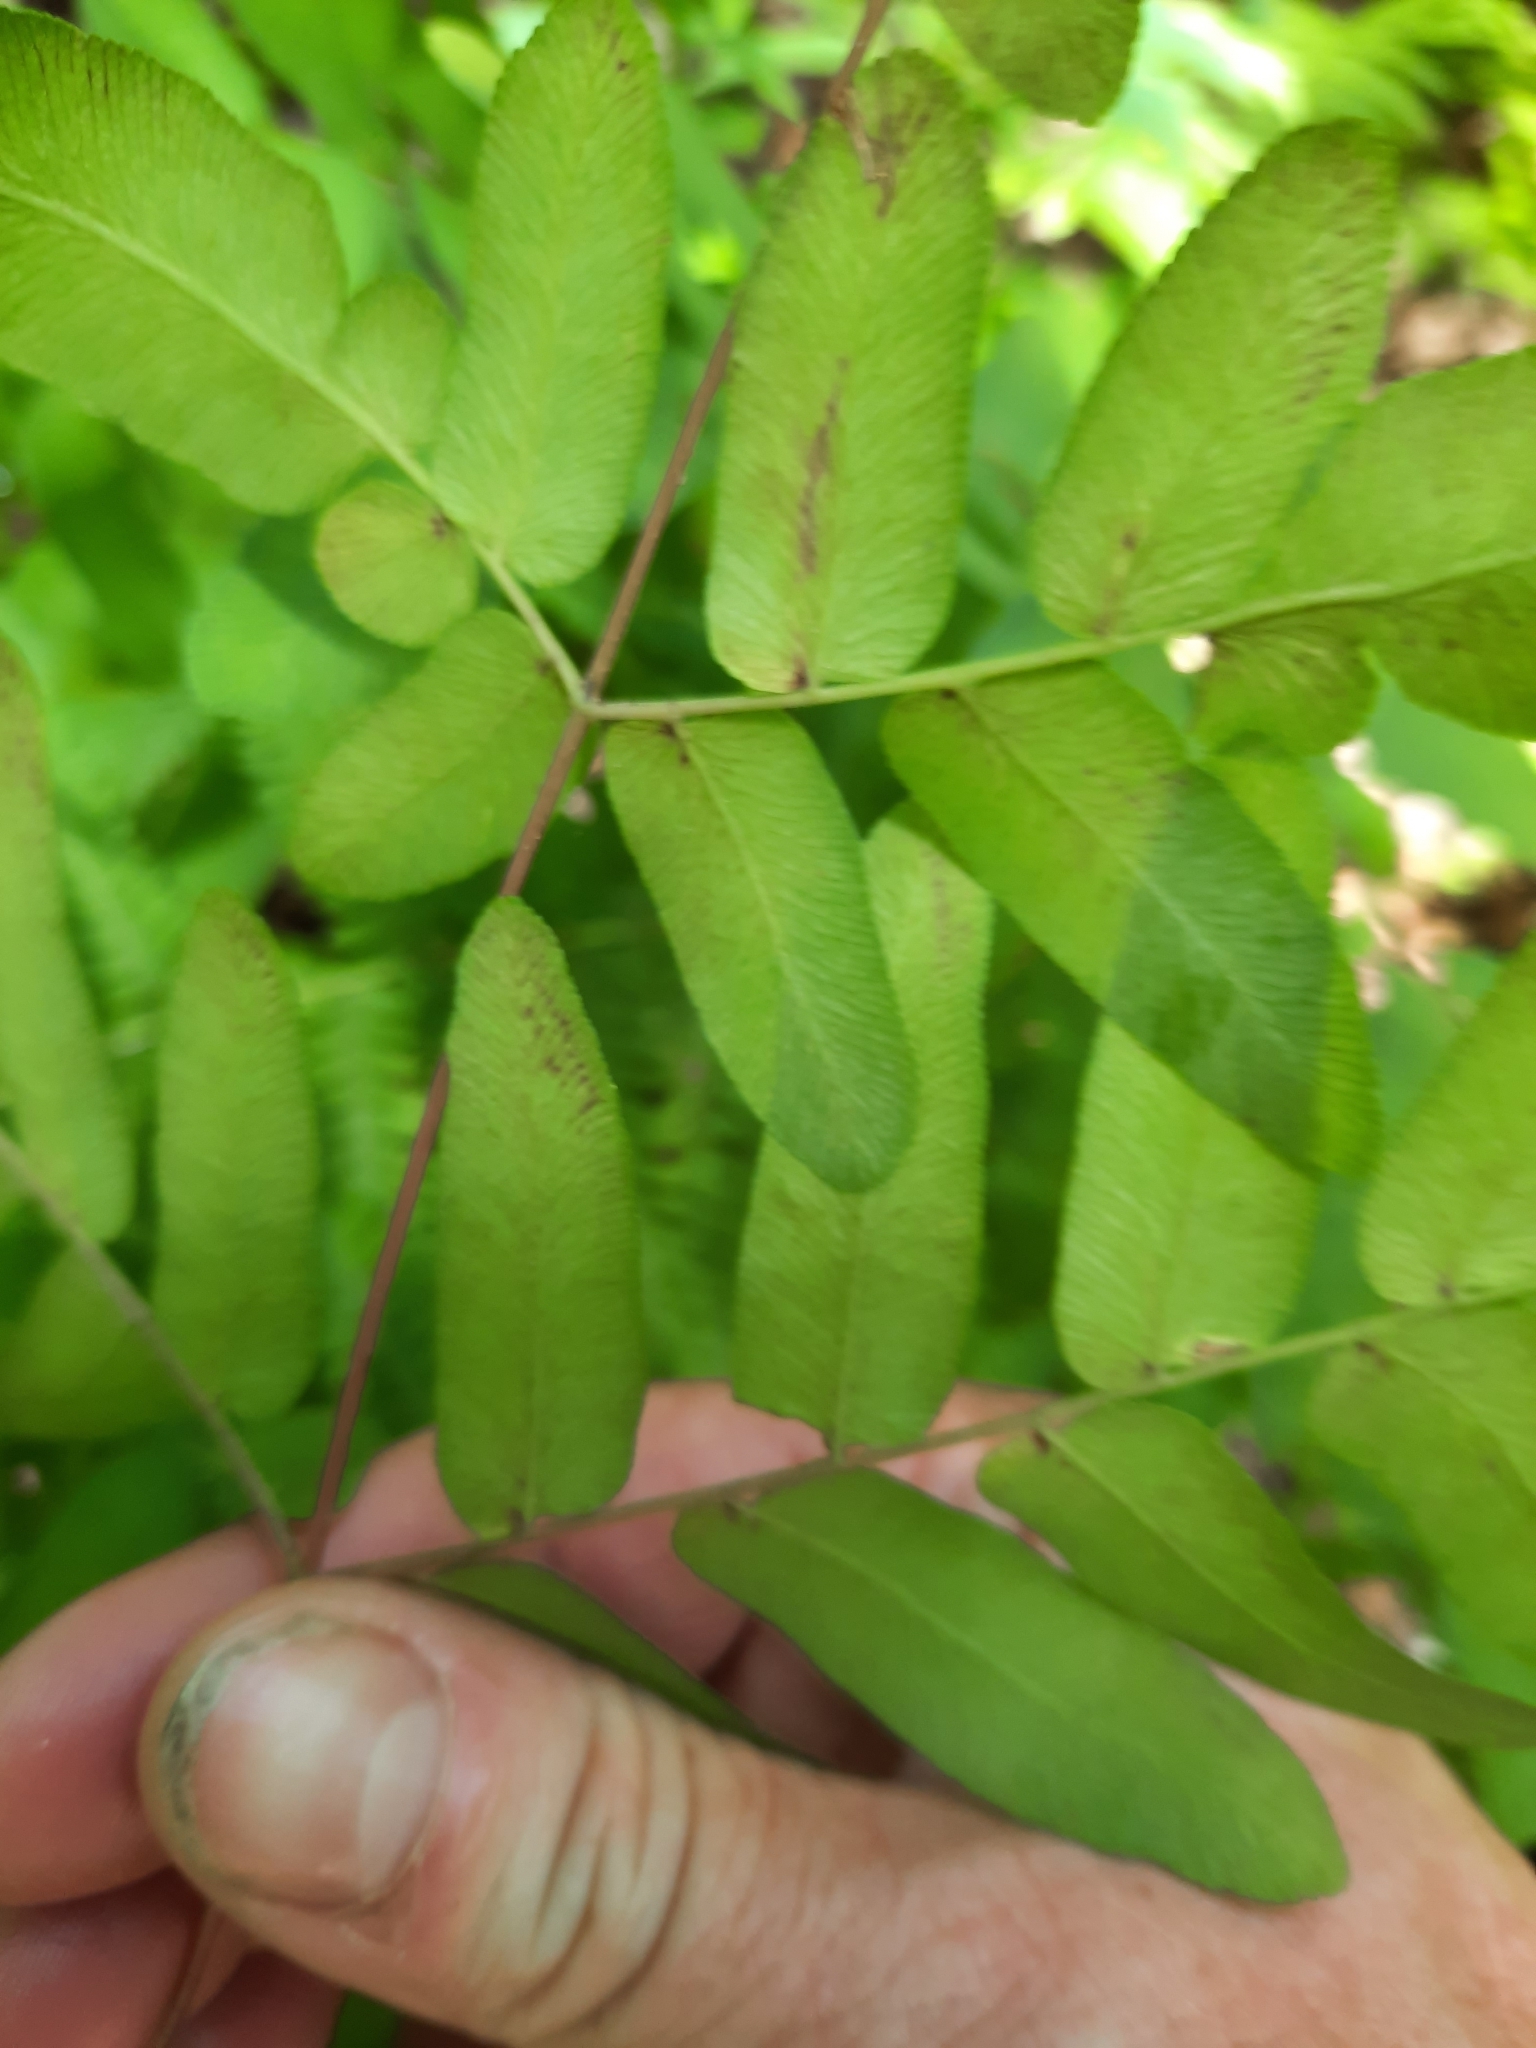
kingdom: Plantae
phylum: Tracheophyta
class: Polypodiopsida
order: Osmundales
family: Osmundaceae
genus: Osmunda
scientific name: Osmunda spectabilis
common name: American royal fern
